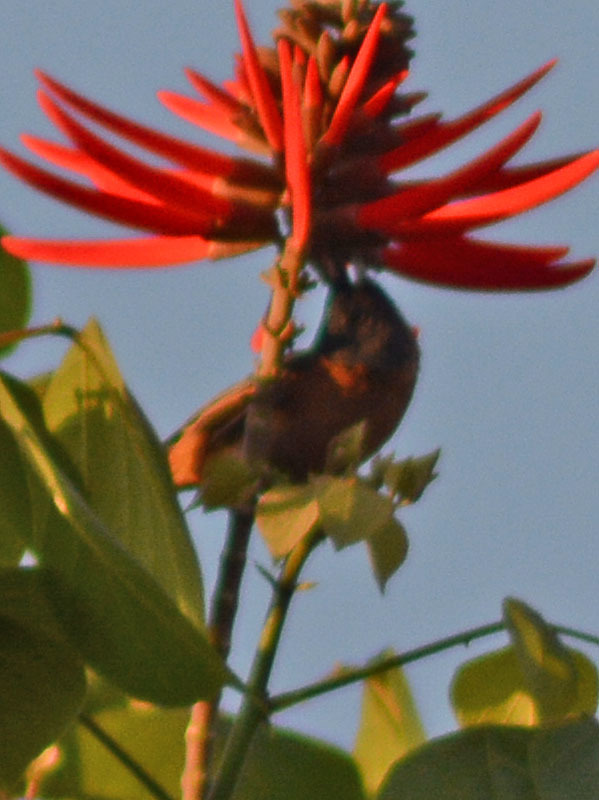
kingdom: Animalia
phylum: Chordata
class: Aves
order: Passeriformes
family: Thraupidae
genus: Diglossa
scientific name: Diglossa baritula
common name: Cinnamon-bellied flowerpiercer
